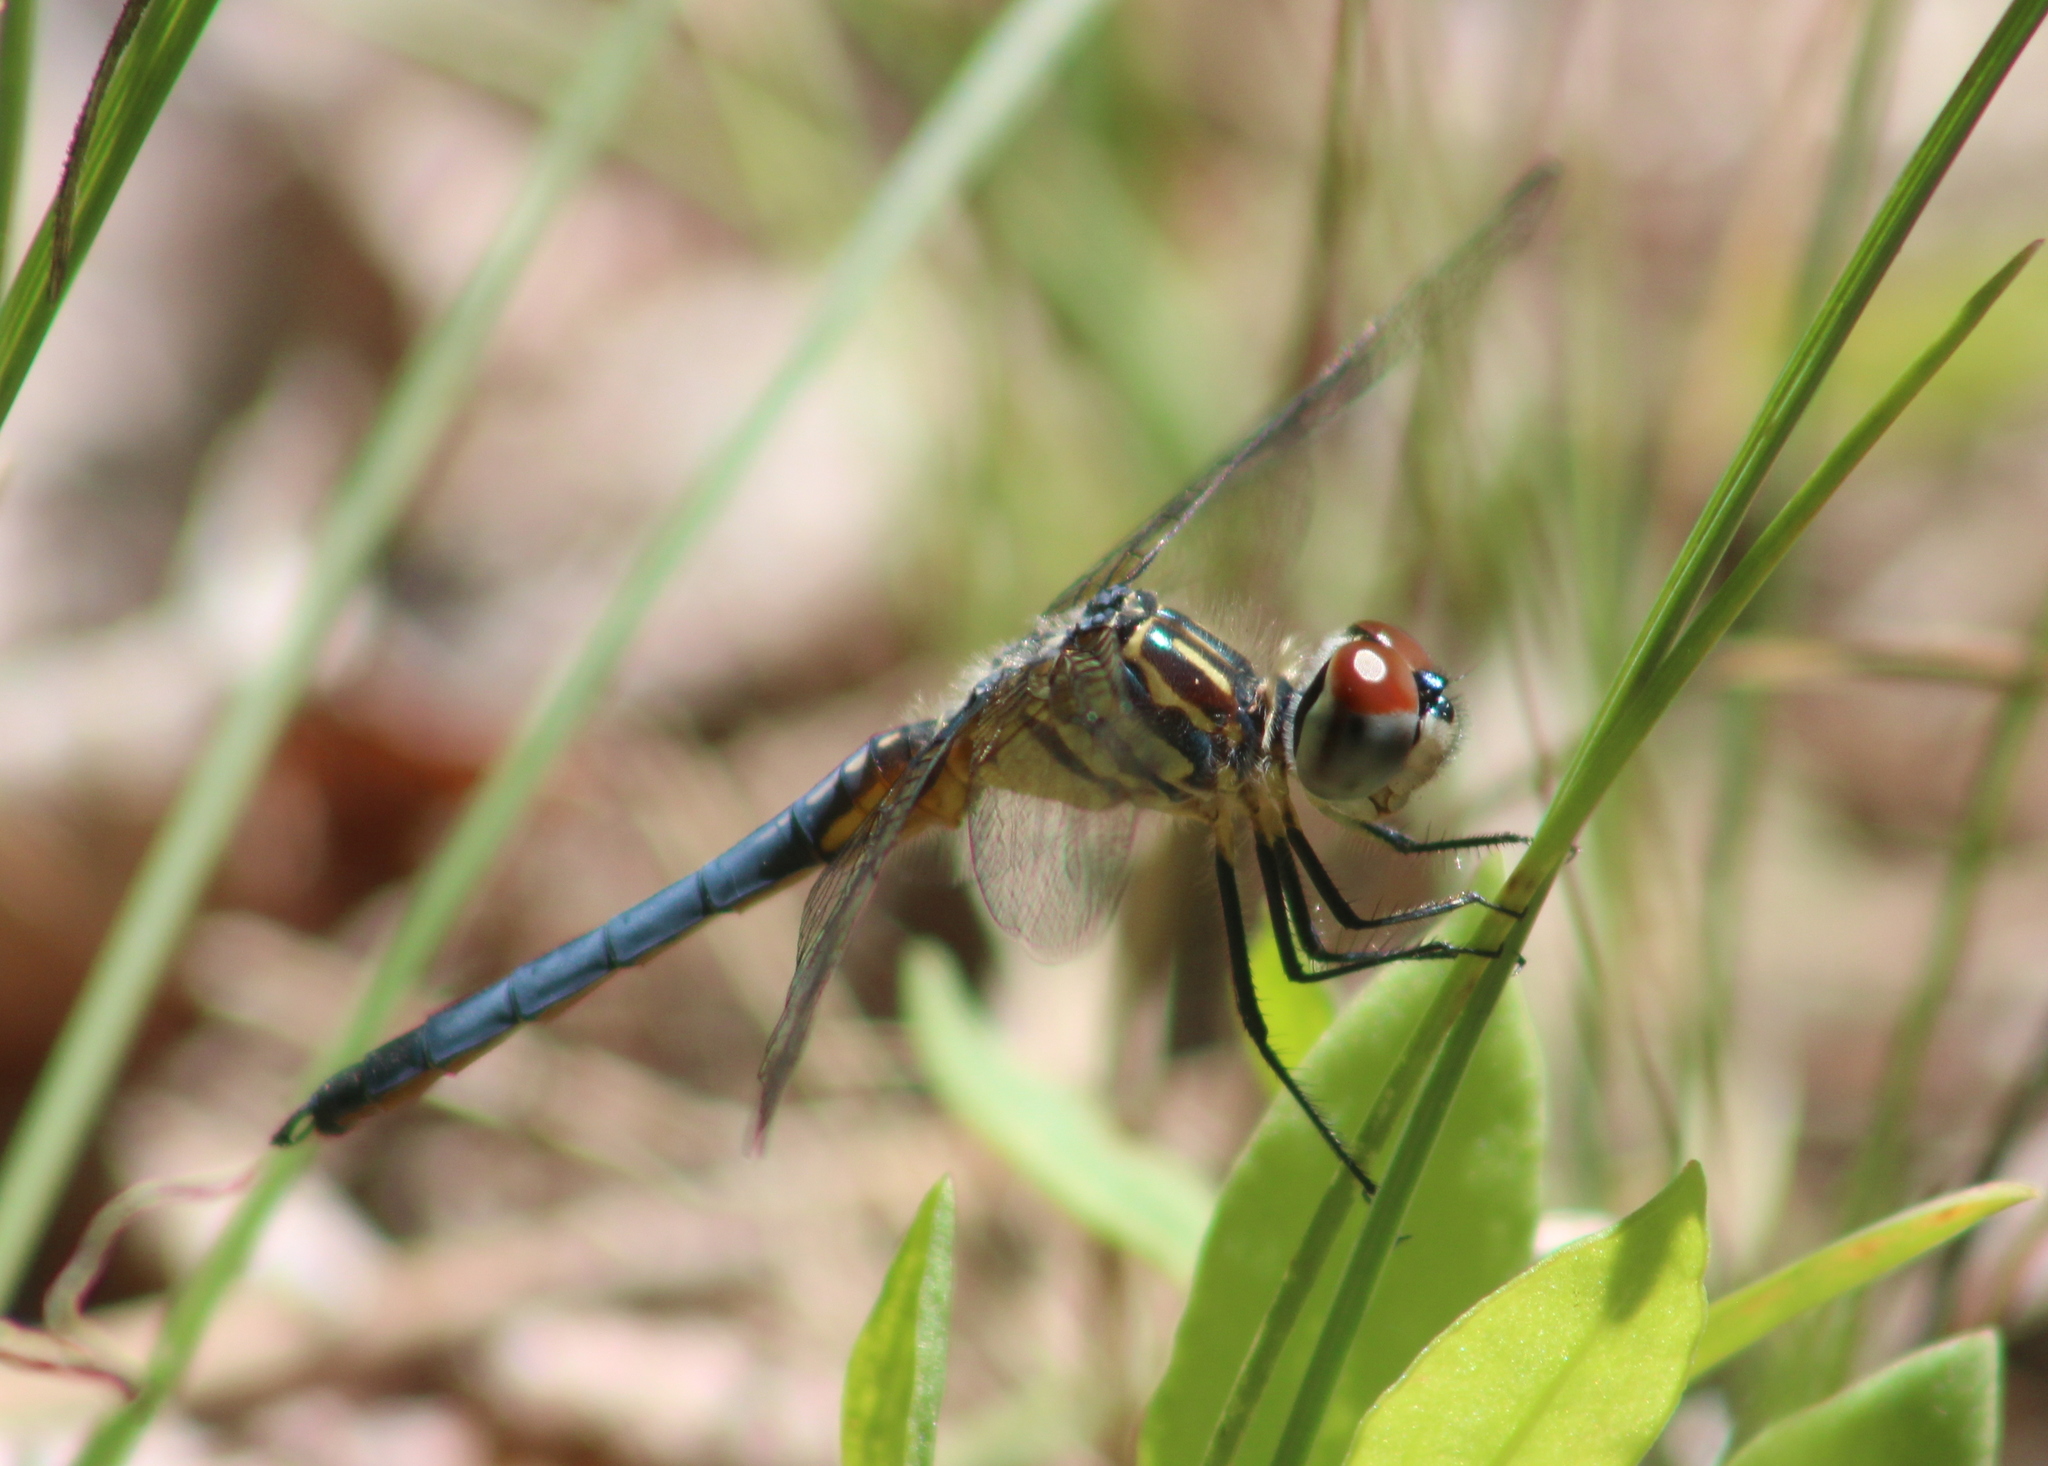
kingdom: Animalia
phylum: Arthropoda
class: Insecta
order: Odonata
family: Libellulidae
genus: Pachydiplax
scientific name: Pachydiplax longipennis
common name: Blue dasher
